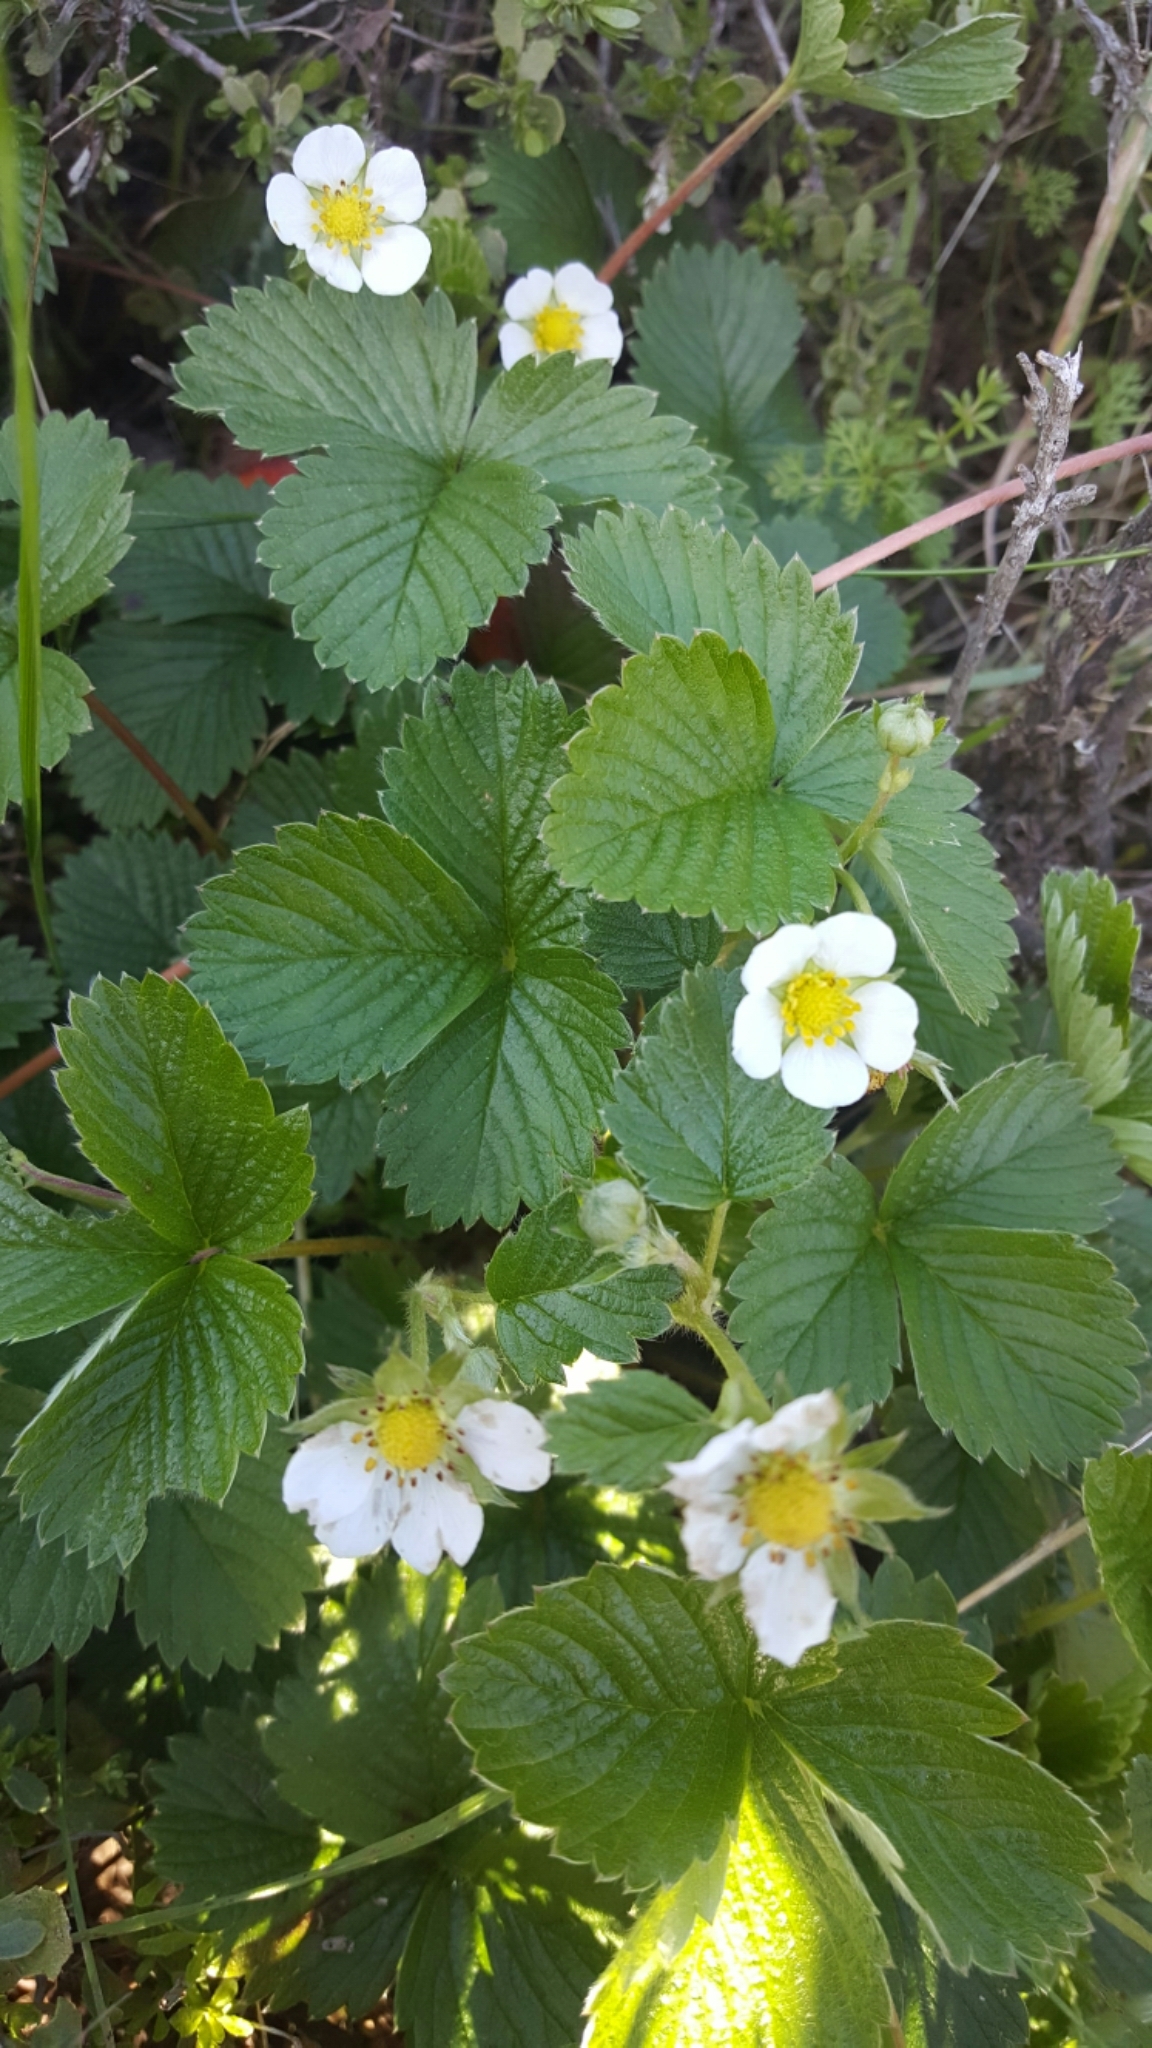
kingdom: Plantae
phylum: Tracheophyta
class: Magnoliopsida
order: Rosales
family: Rosaceae
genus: Fragaria
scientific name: Fragaria vesca
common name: Wild strawberry
